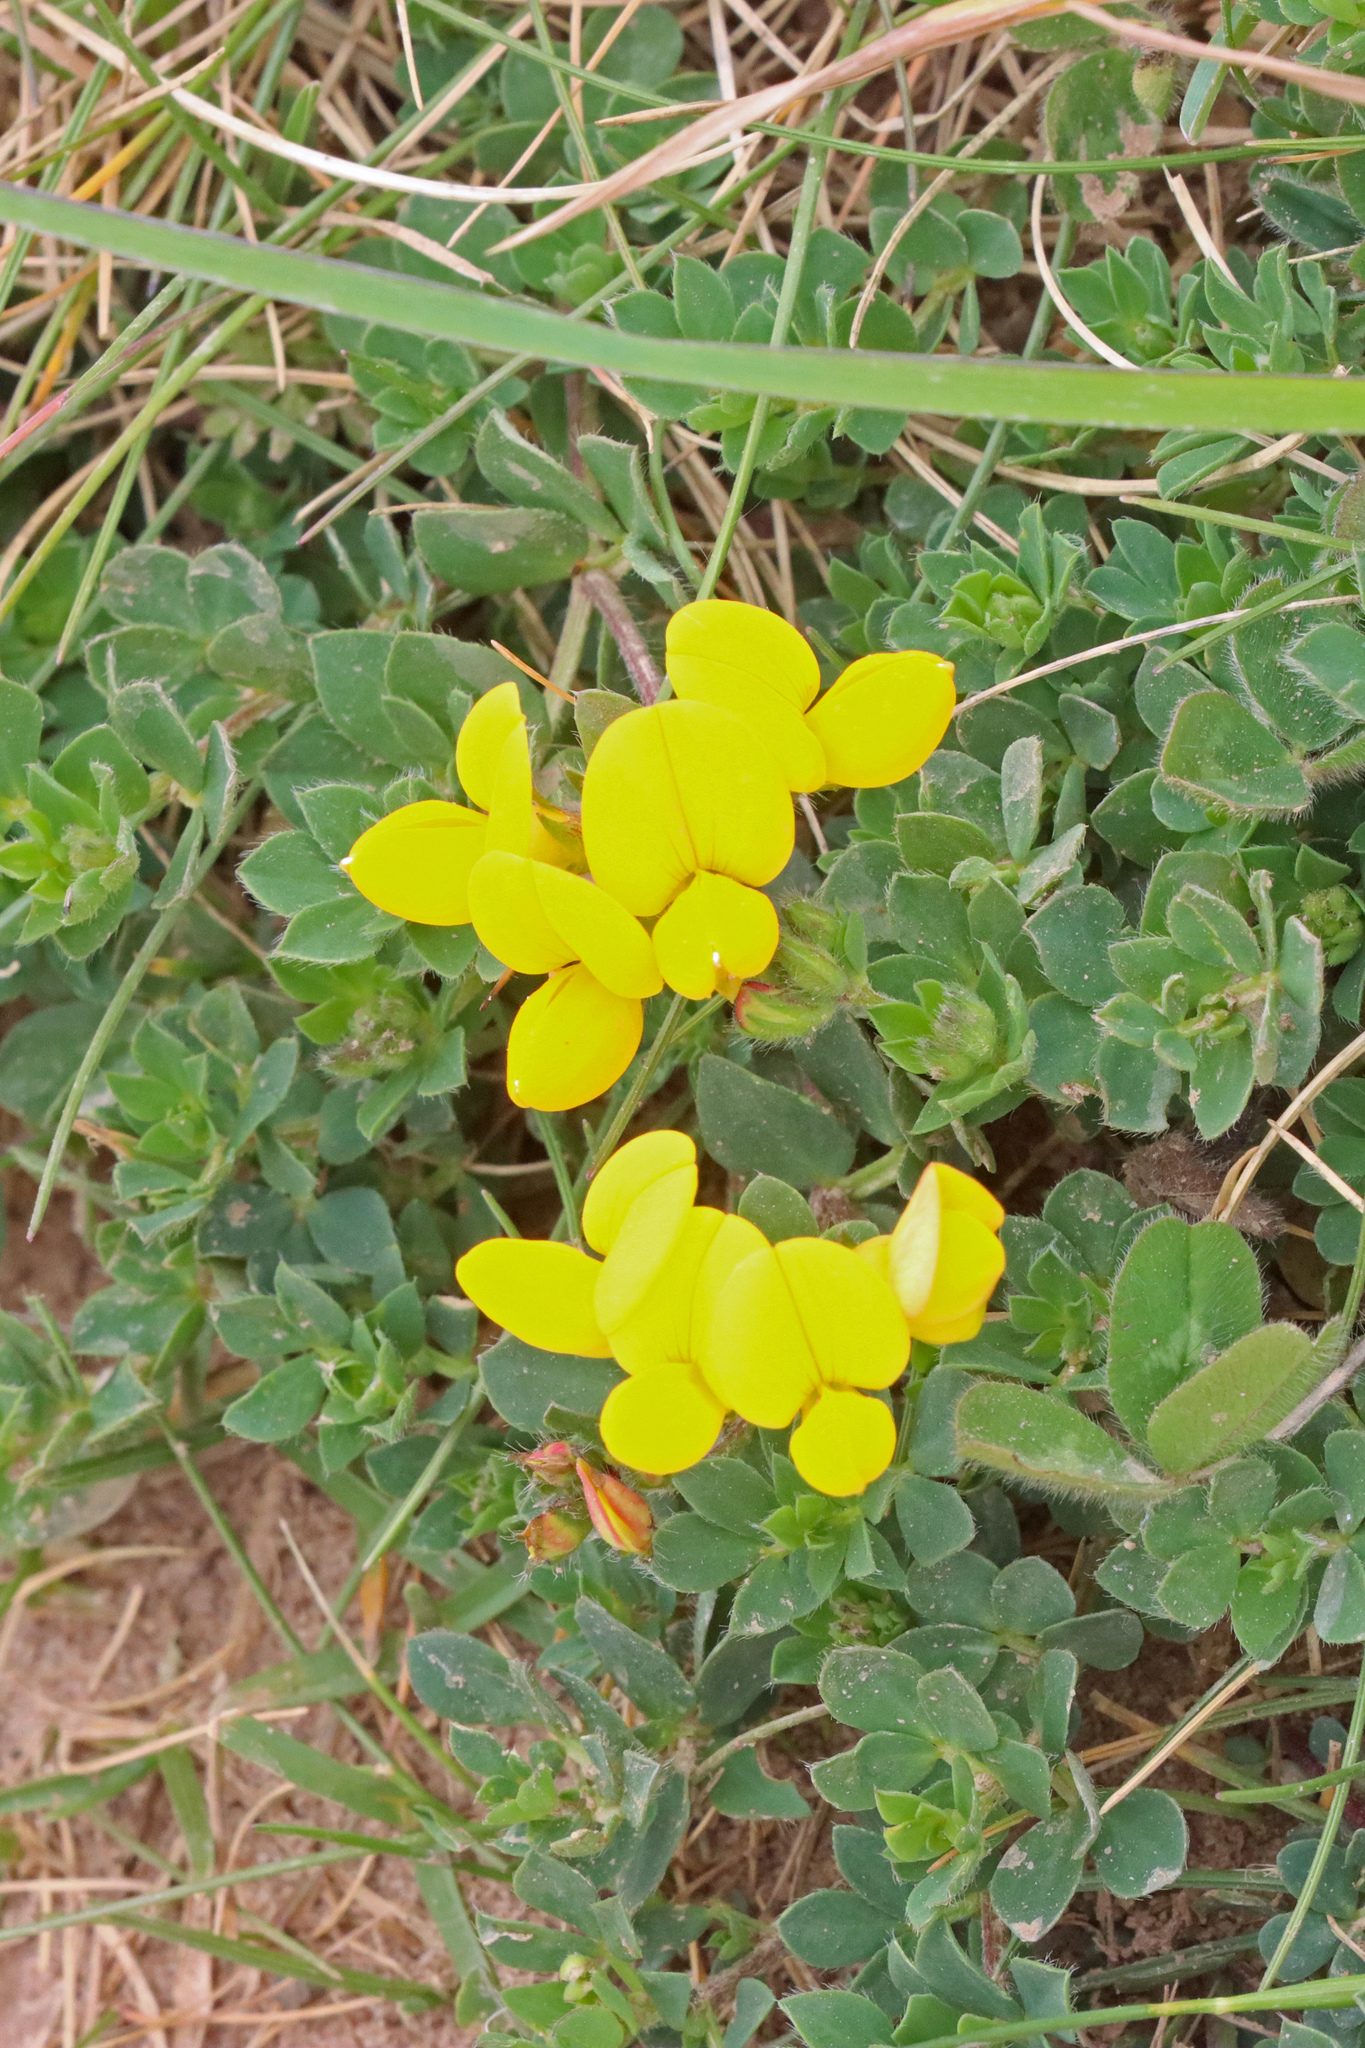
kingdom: Plantae
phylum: Tracheophyta
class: Magnoliopsida
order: Fabales
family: Fabaceae
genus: Lotus
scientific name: Lotus corniculatus
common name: Common bird's-foot-trefoil
